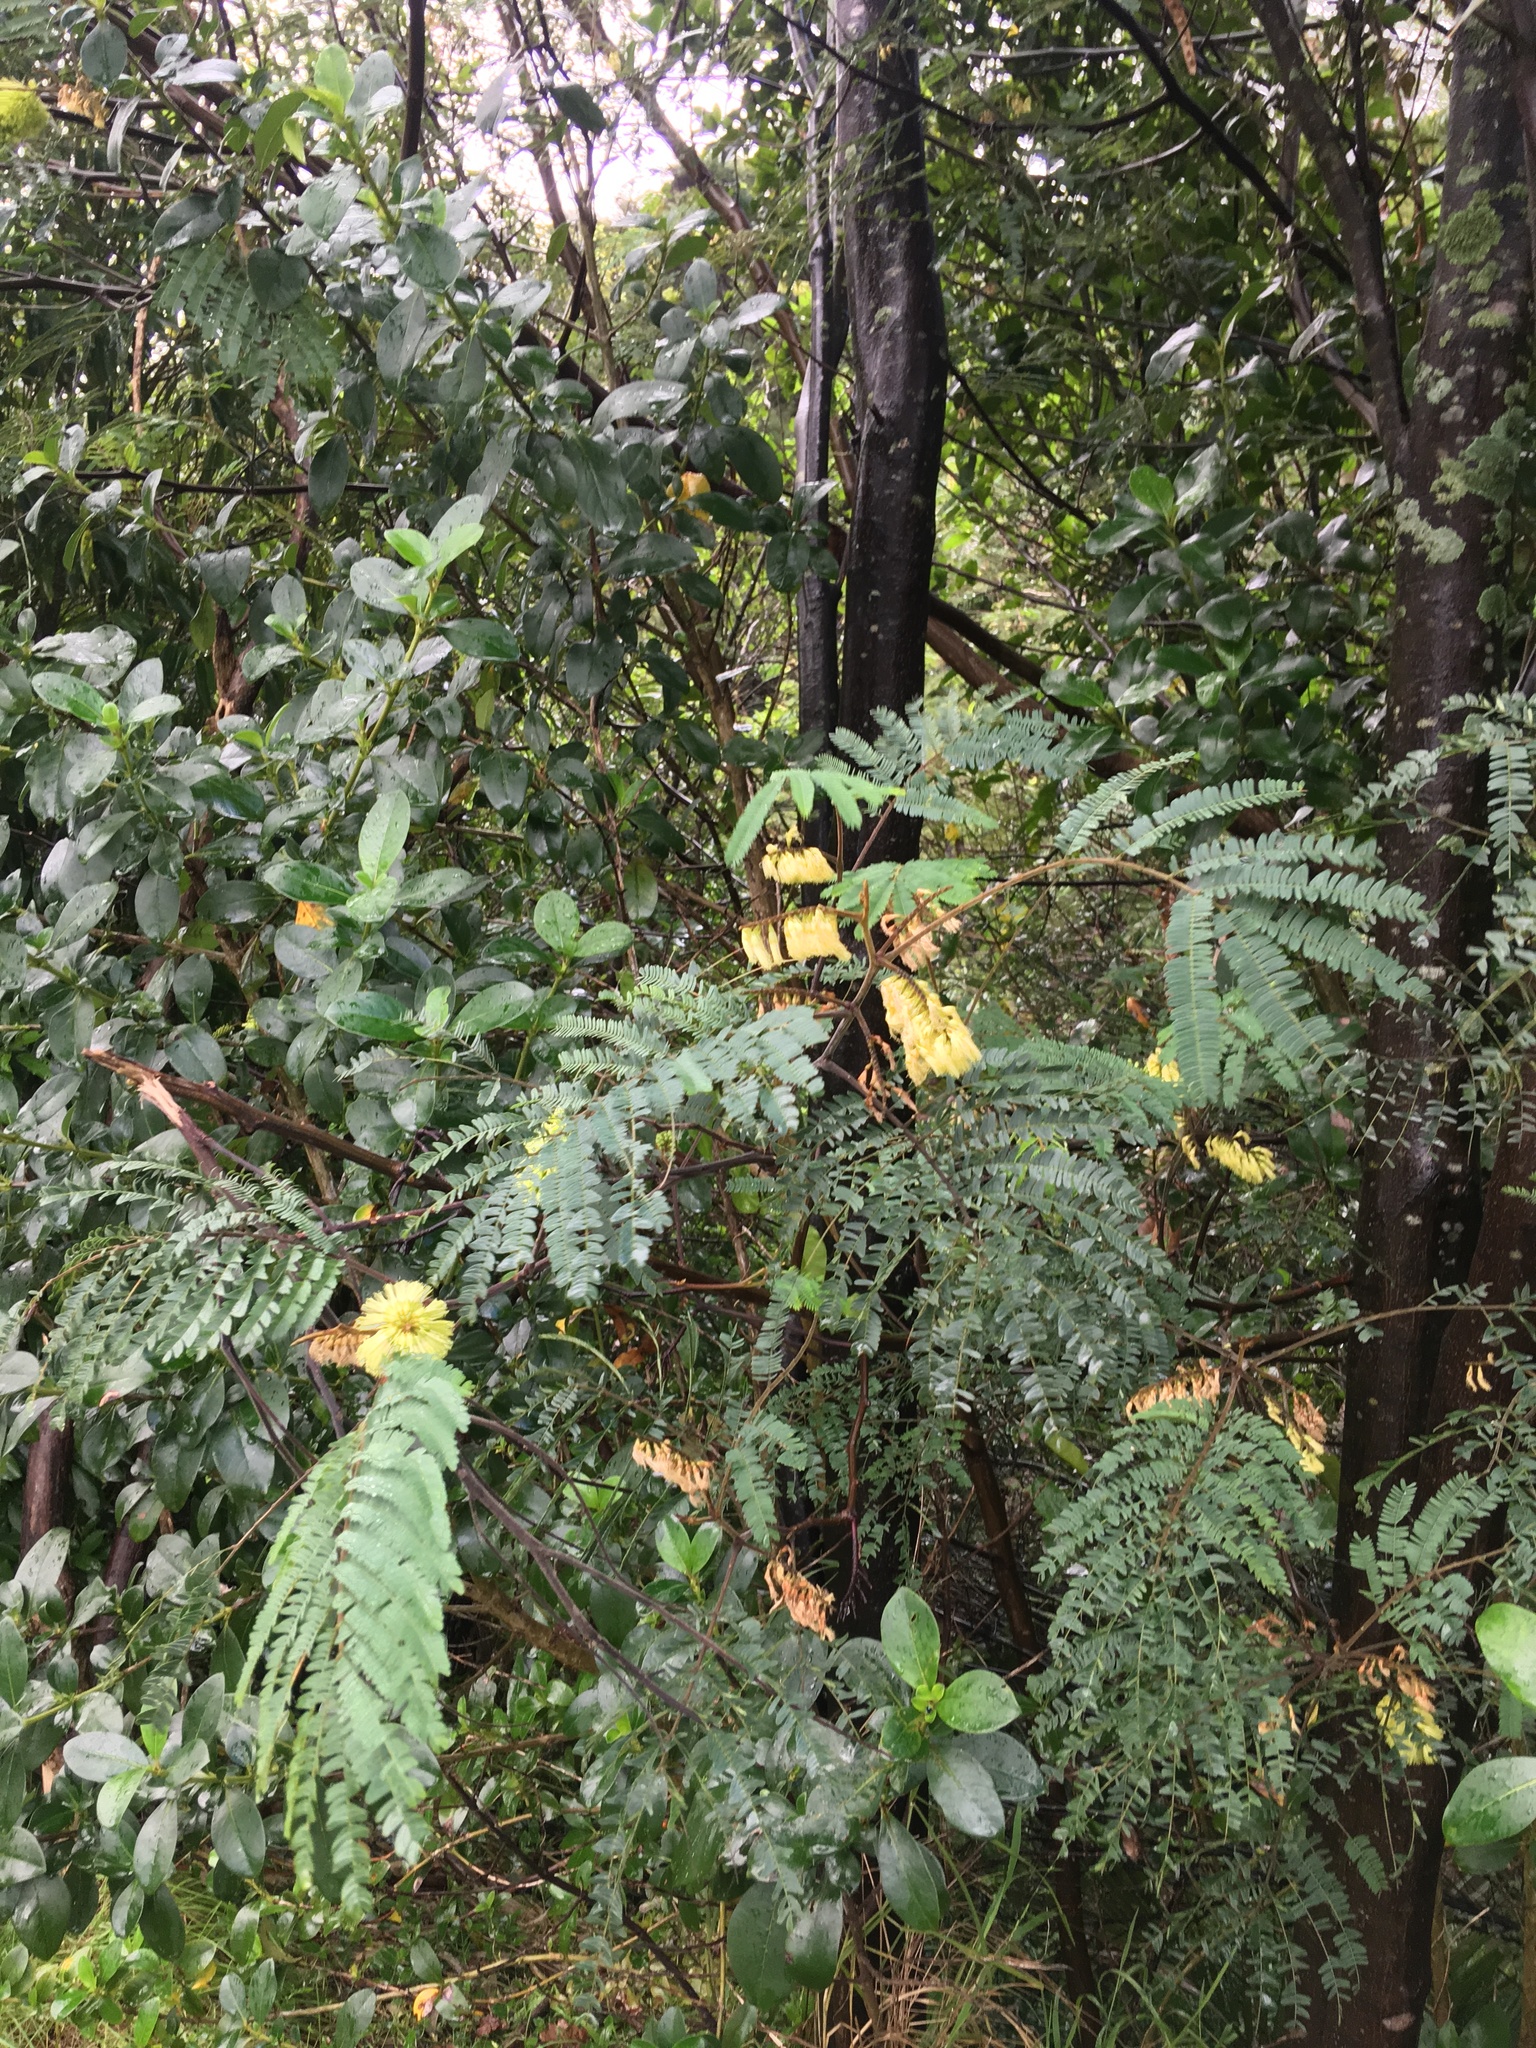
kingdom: Plantae
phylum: Tracheophyta
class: Magnoliopsida
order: Fabales
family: Fabaceae
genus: Paraserianthes
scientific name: Paraserianthes lophantha
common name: Plume albizia
